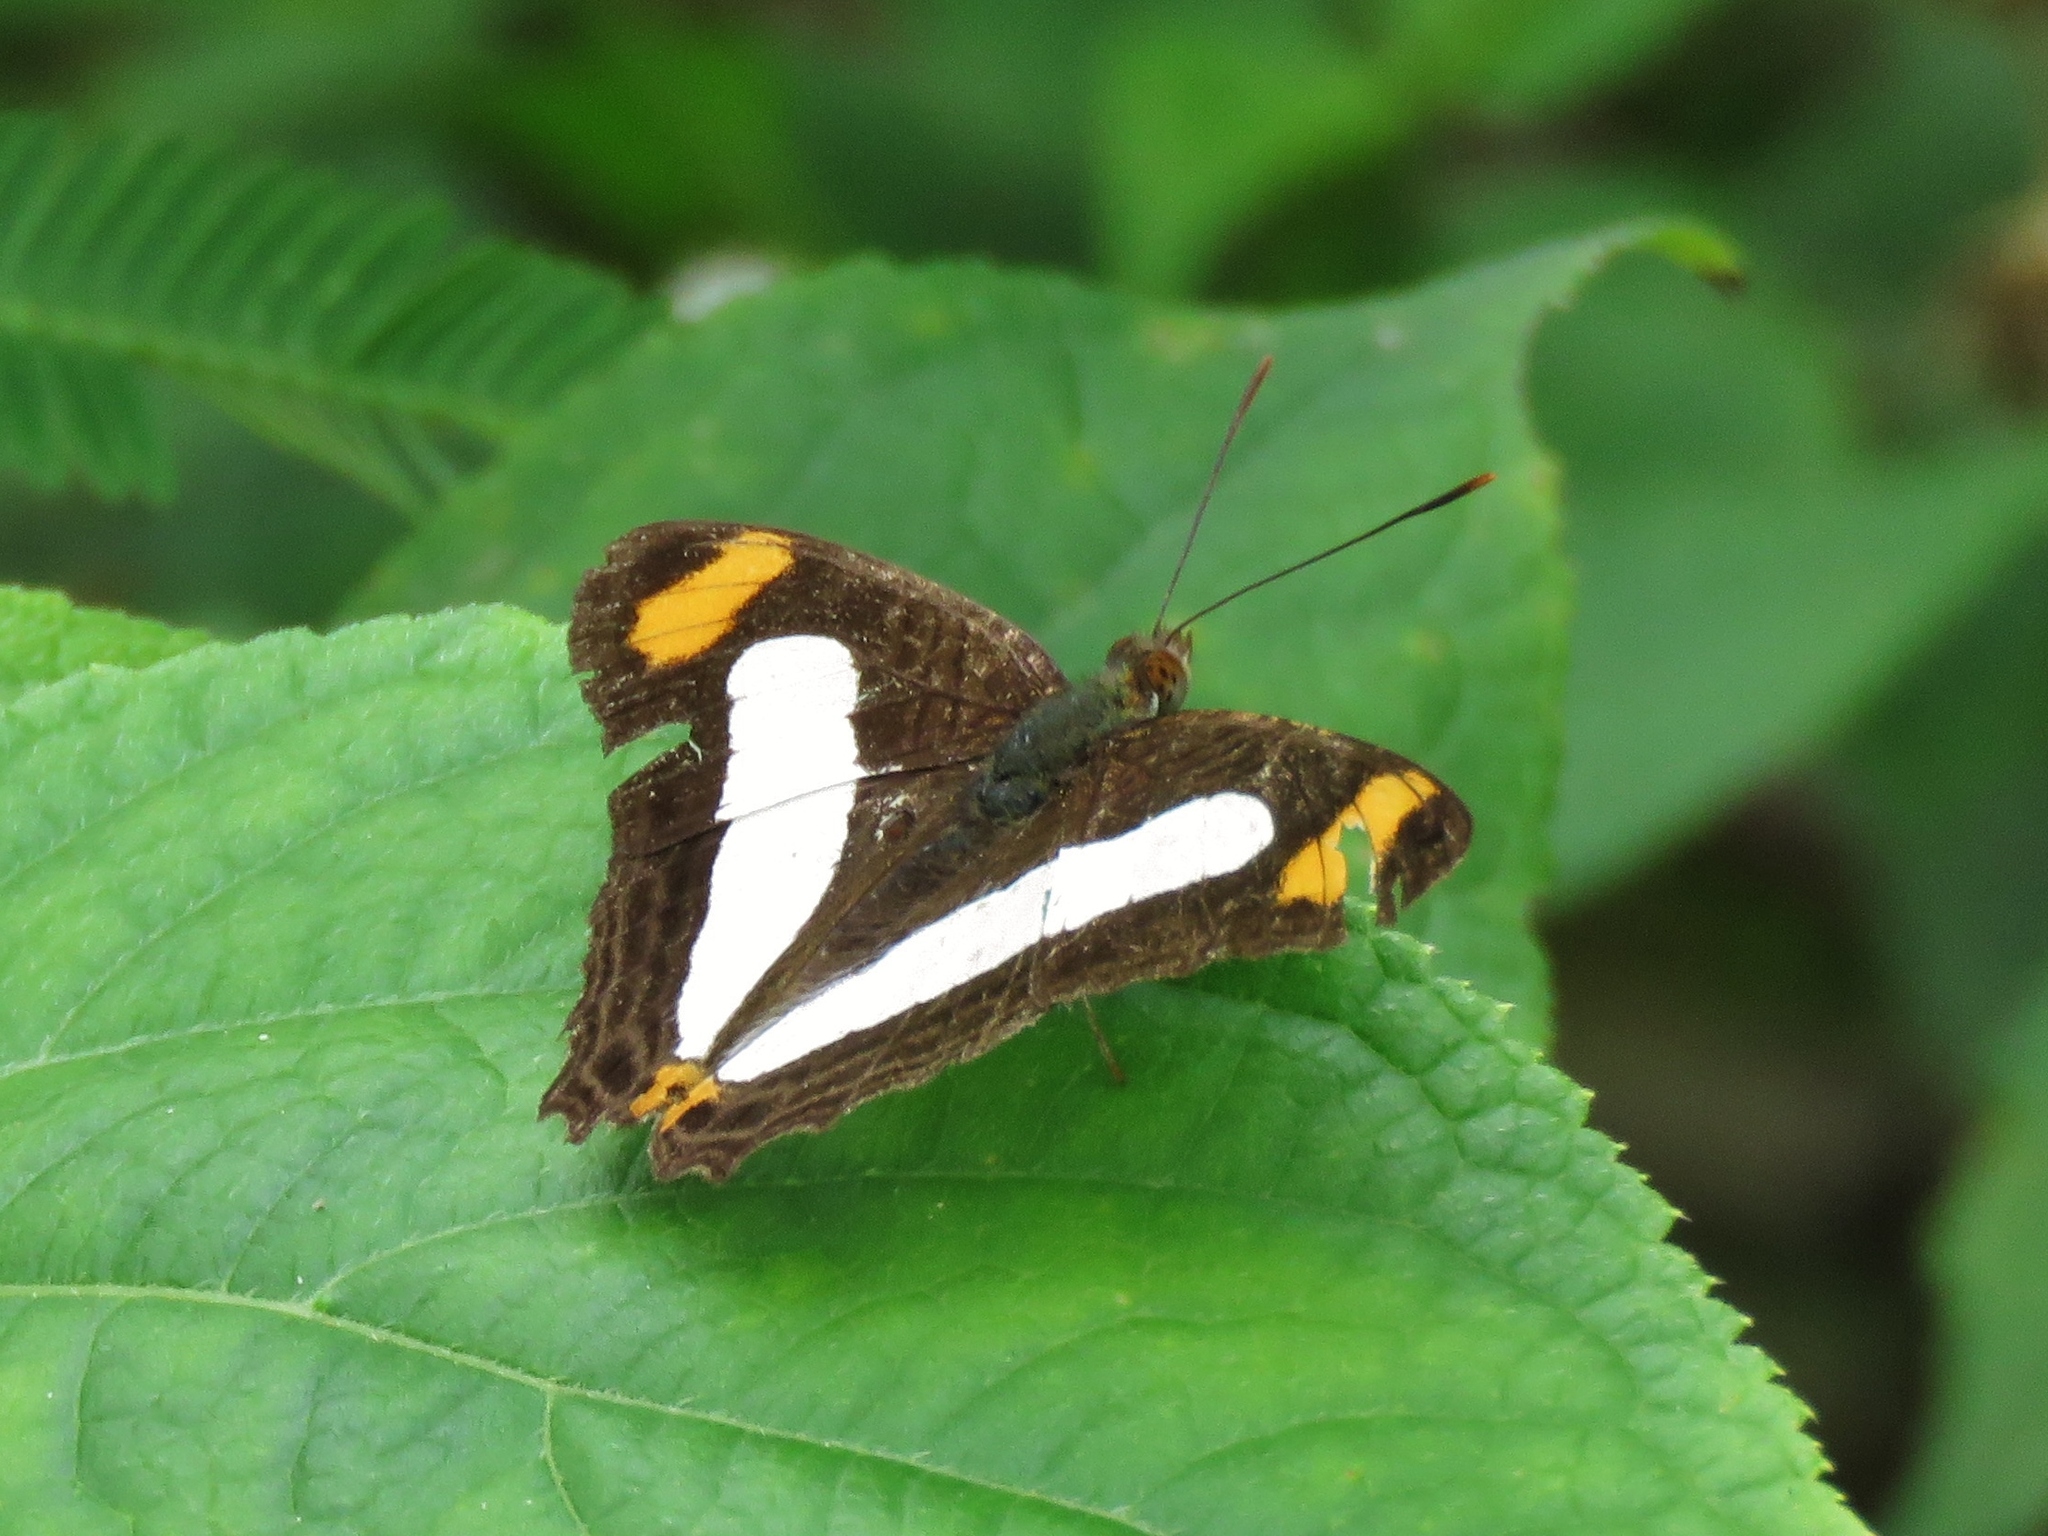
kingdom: Animalia
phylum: Arthropoda
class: Insecta
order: Lepidoptera
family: Nymphalidae
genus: Limenitis
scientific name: Limenitis iphiclus
